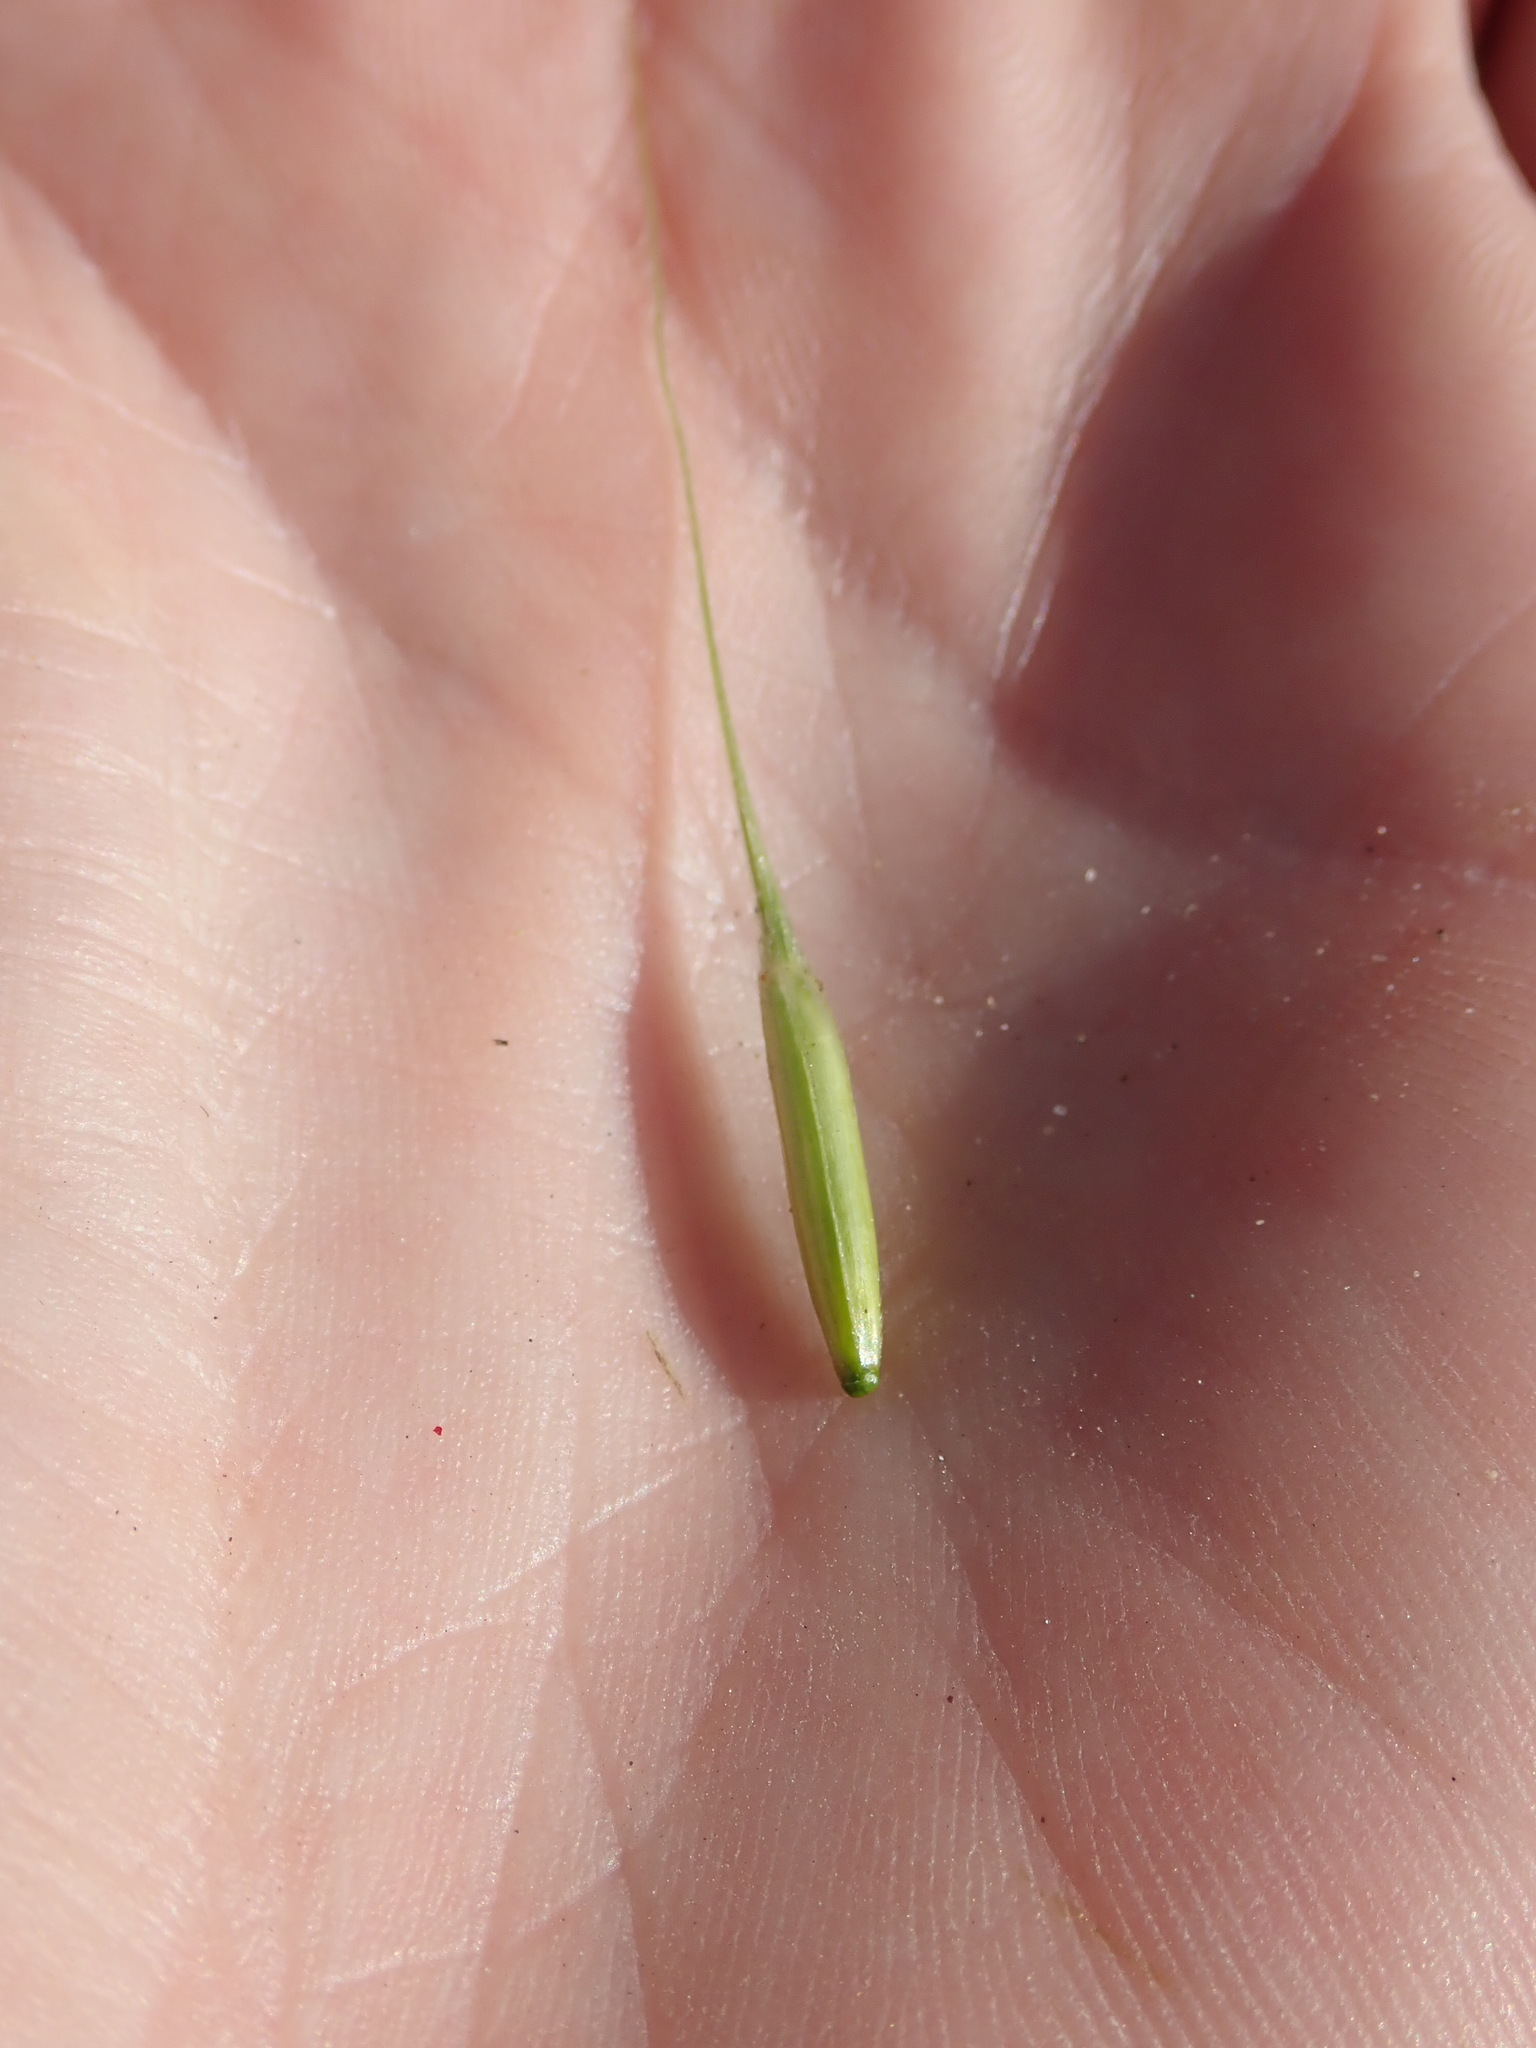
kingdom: Plantae
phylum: Tracheophyta
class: Liliopsida
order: Poales
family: Poaceae
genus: Zizania
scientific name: Zizania palustris
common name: Northern wild rice
